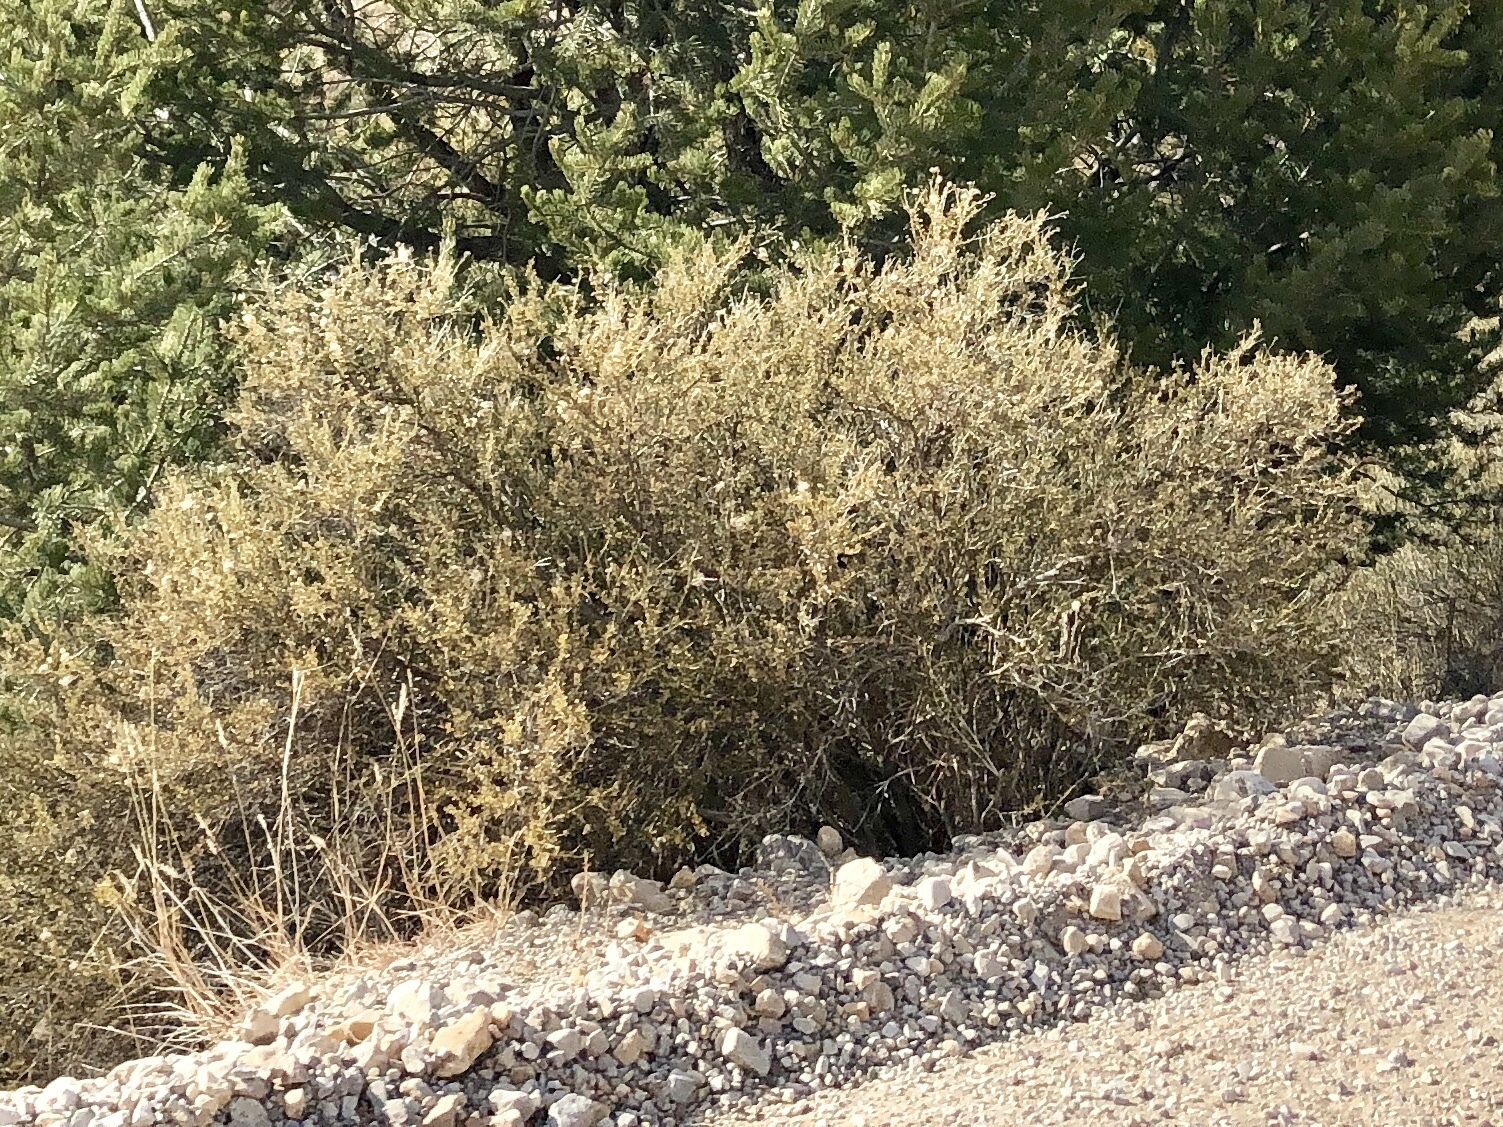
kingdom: Plantae
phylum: Tracheophyta
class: Magnoliopsida
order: Rosales
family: Rosaceae
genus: Fallugia
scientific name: Fallugia paradoxa
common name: Apache-plume
